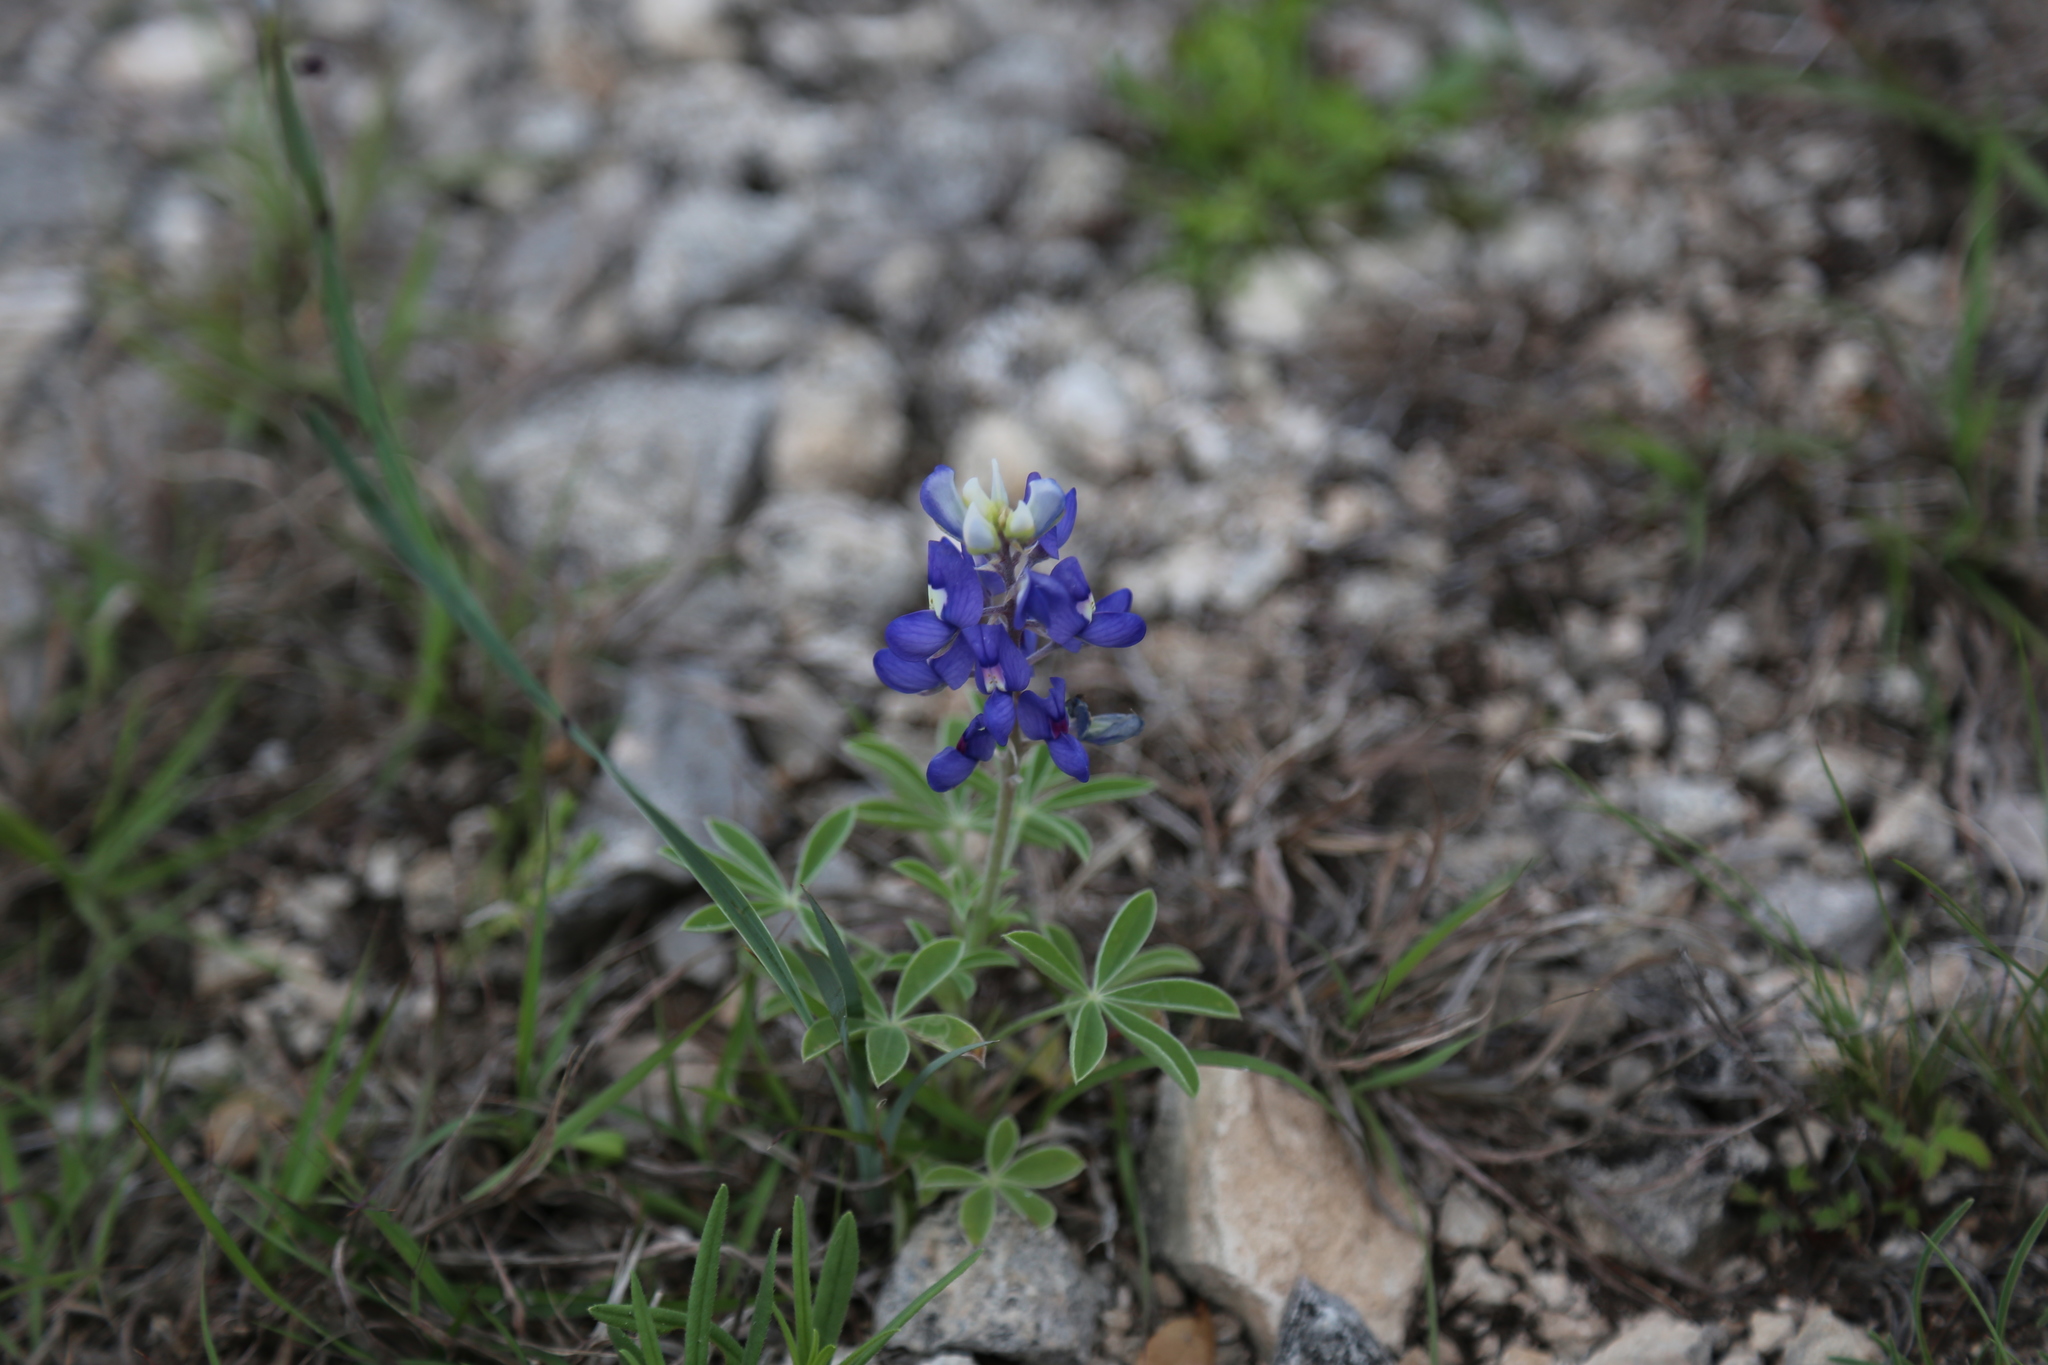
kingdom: Plantae
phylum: Tracheophyta
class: Magnoliopsida
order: Fabales
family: Fabaceae
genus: Lupinus
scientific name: Lupinus texensis
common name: Texas bluebonnet
